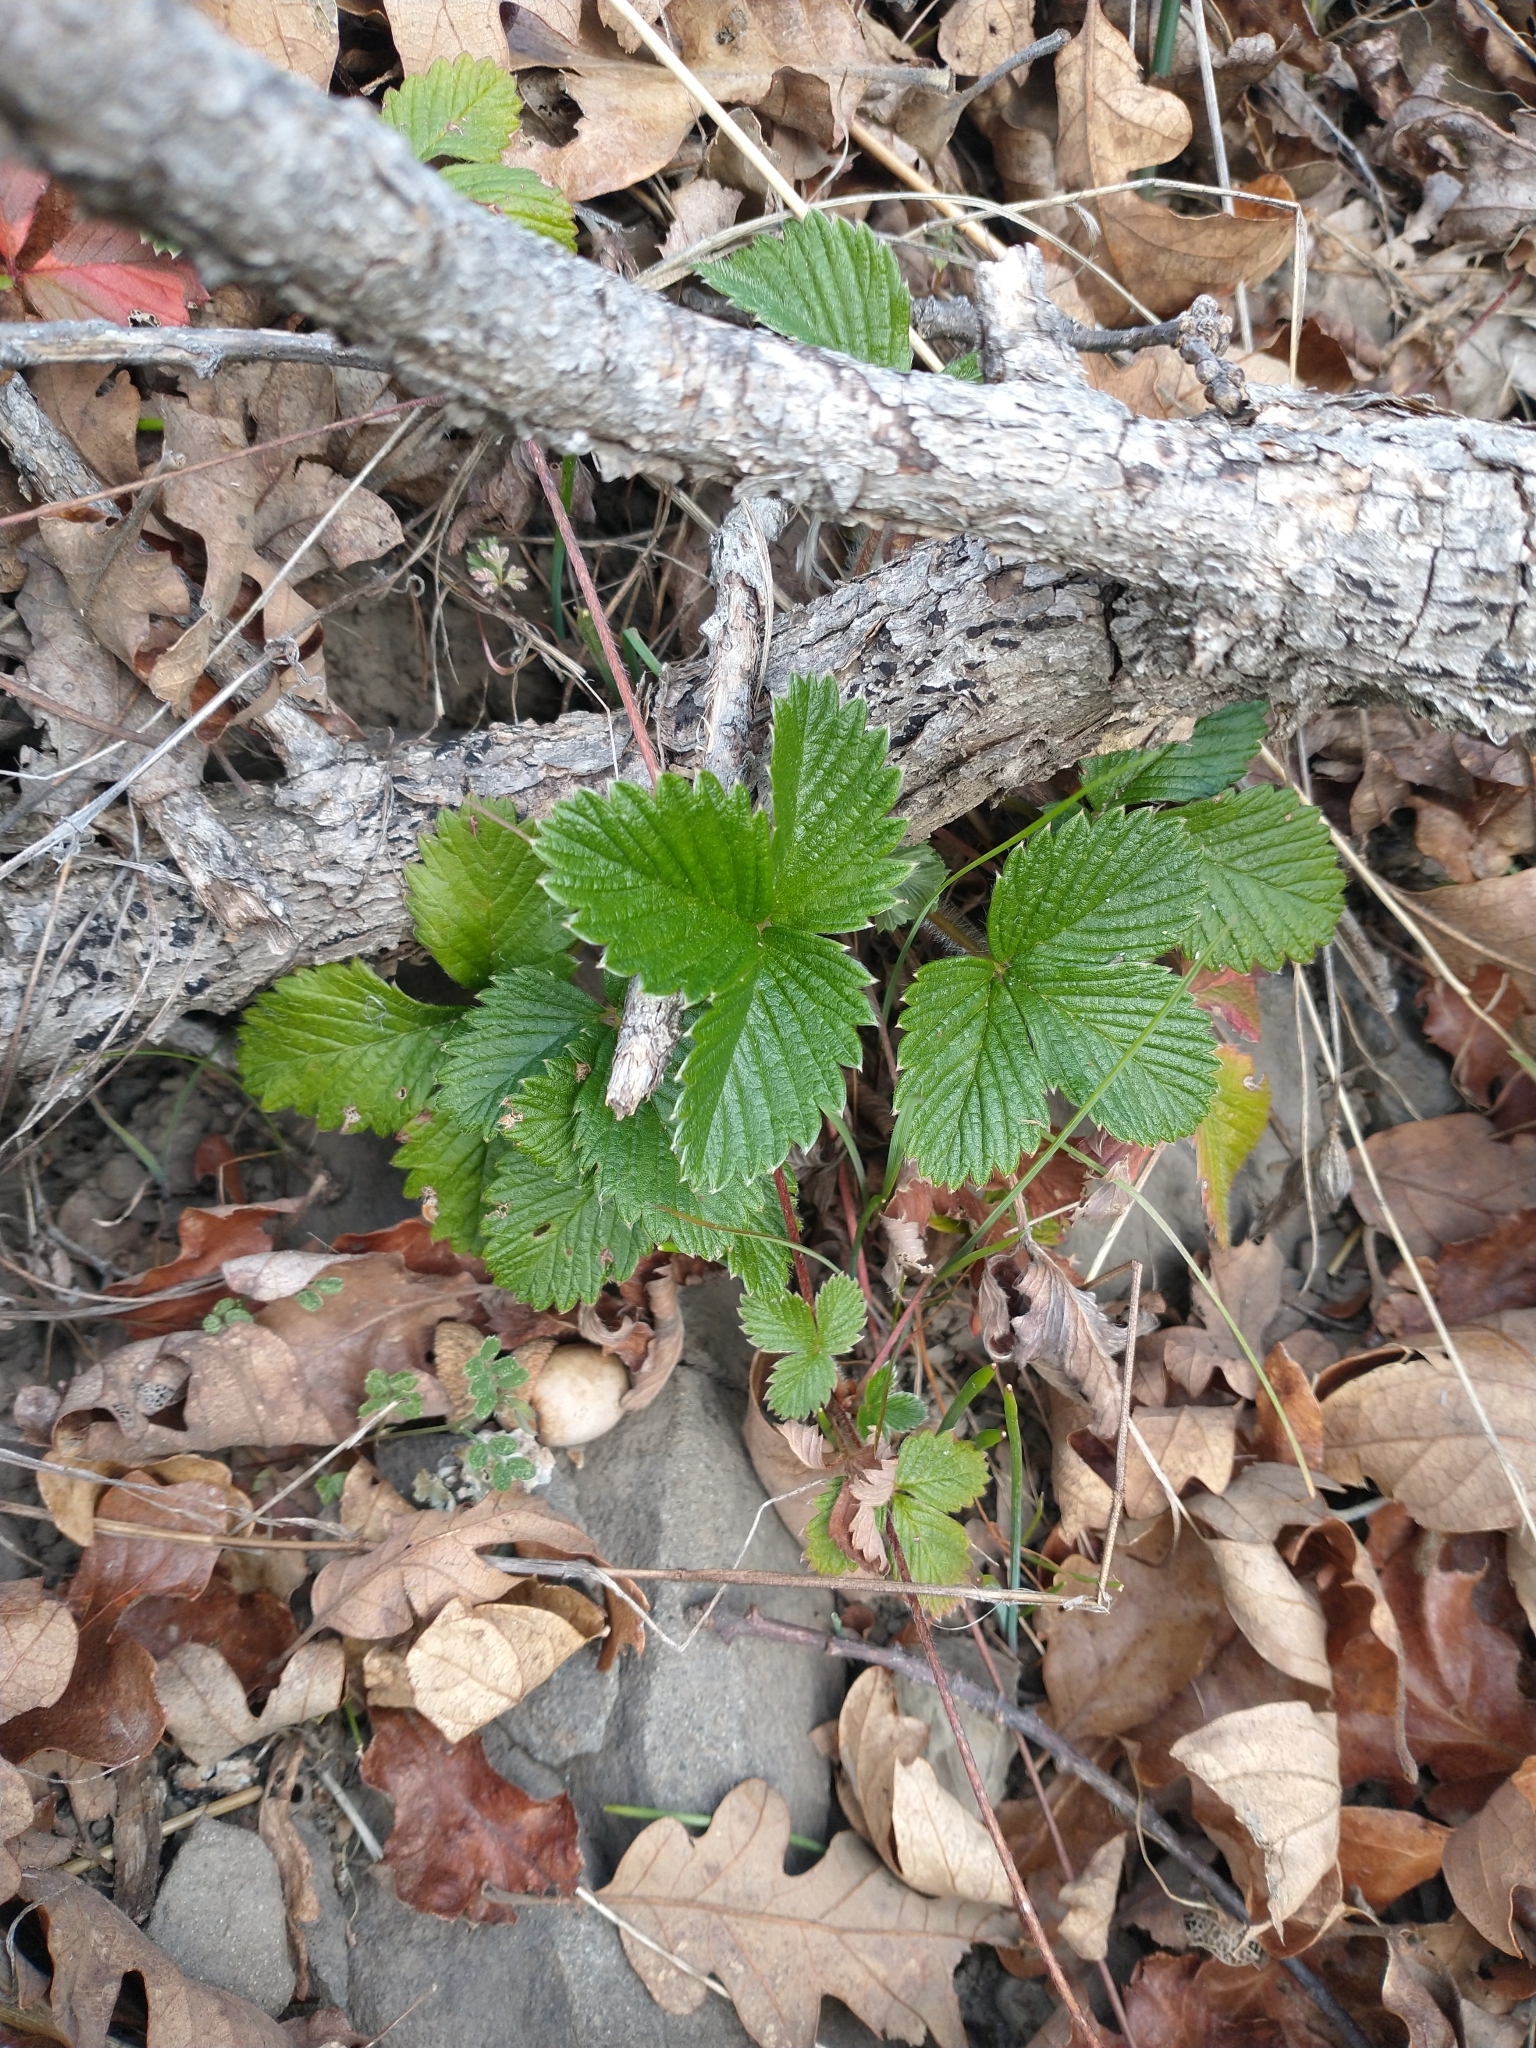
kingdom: Plantae
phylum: Tracheophyta
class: Magnoliopsida
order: Rosales
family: Rosaceae
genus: Fragaria
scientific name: Fragaria vesca
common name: Wild strawberry
